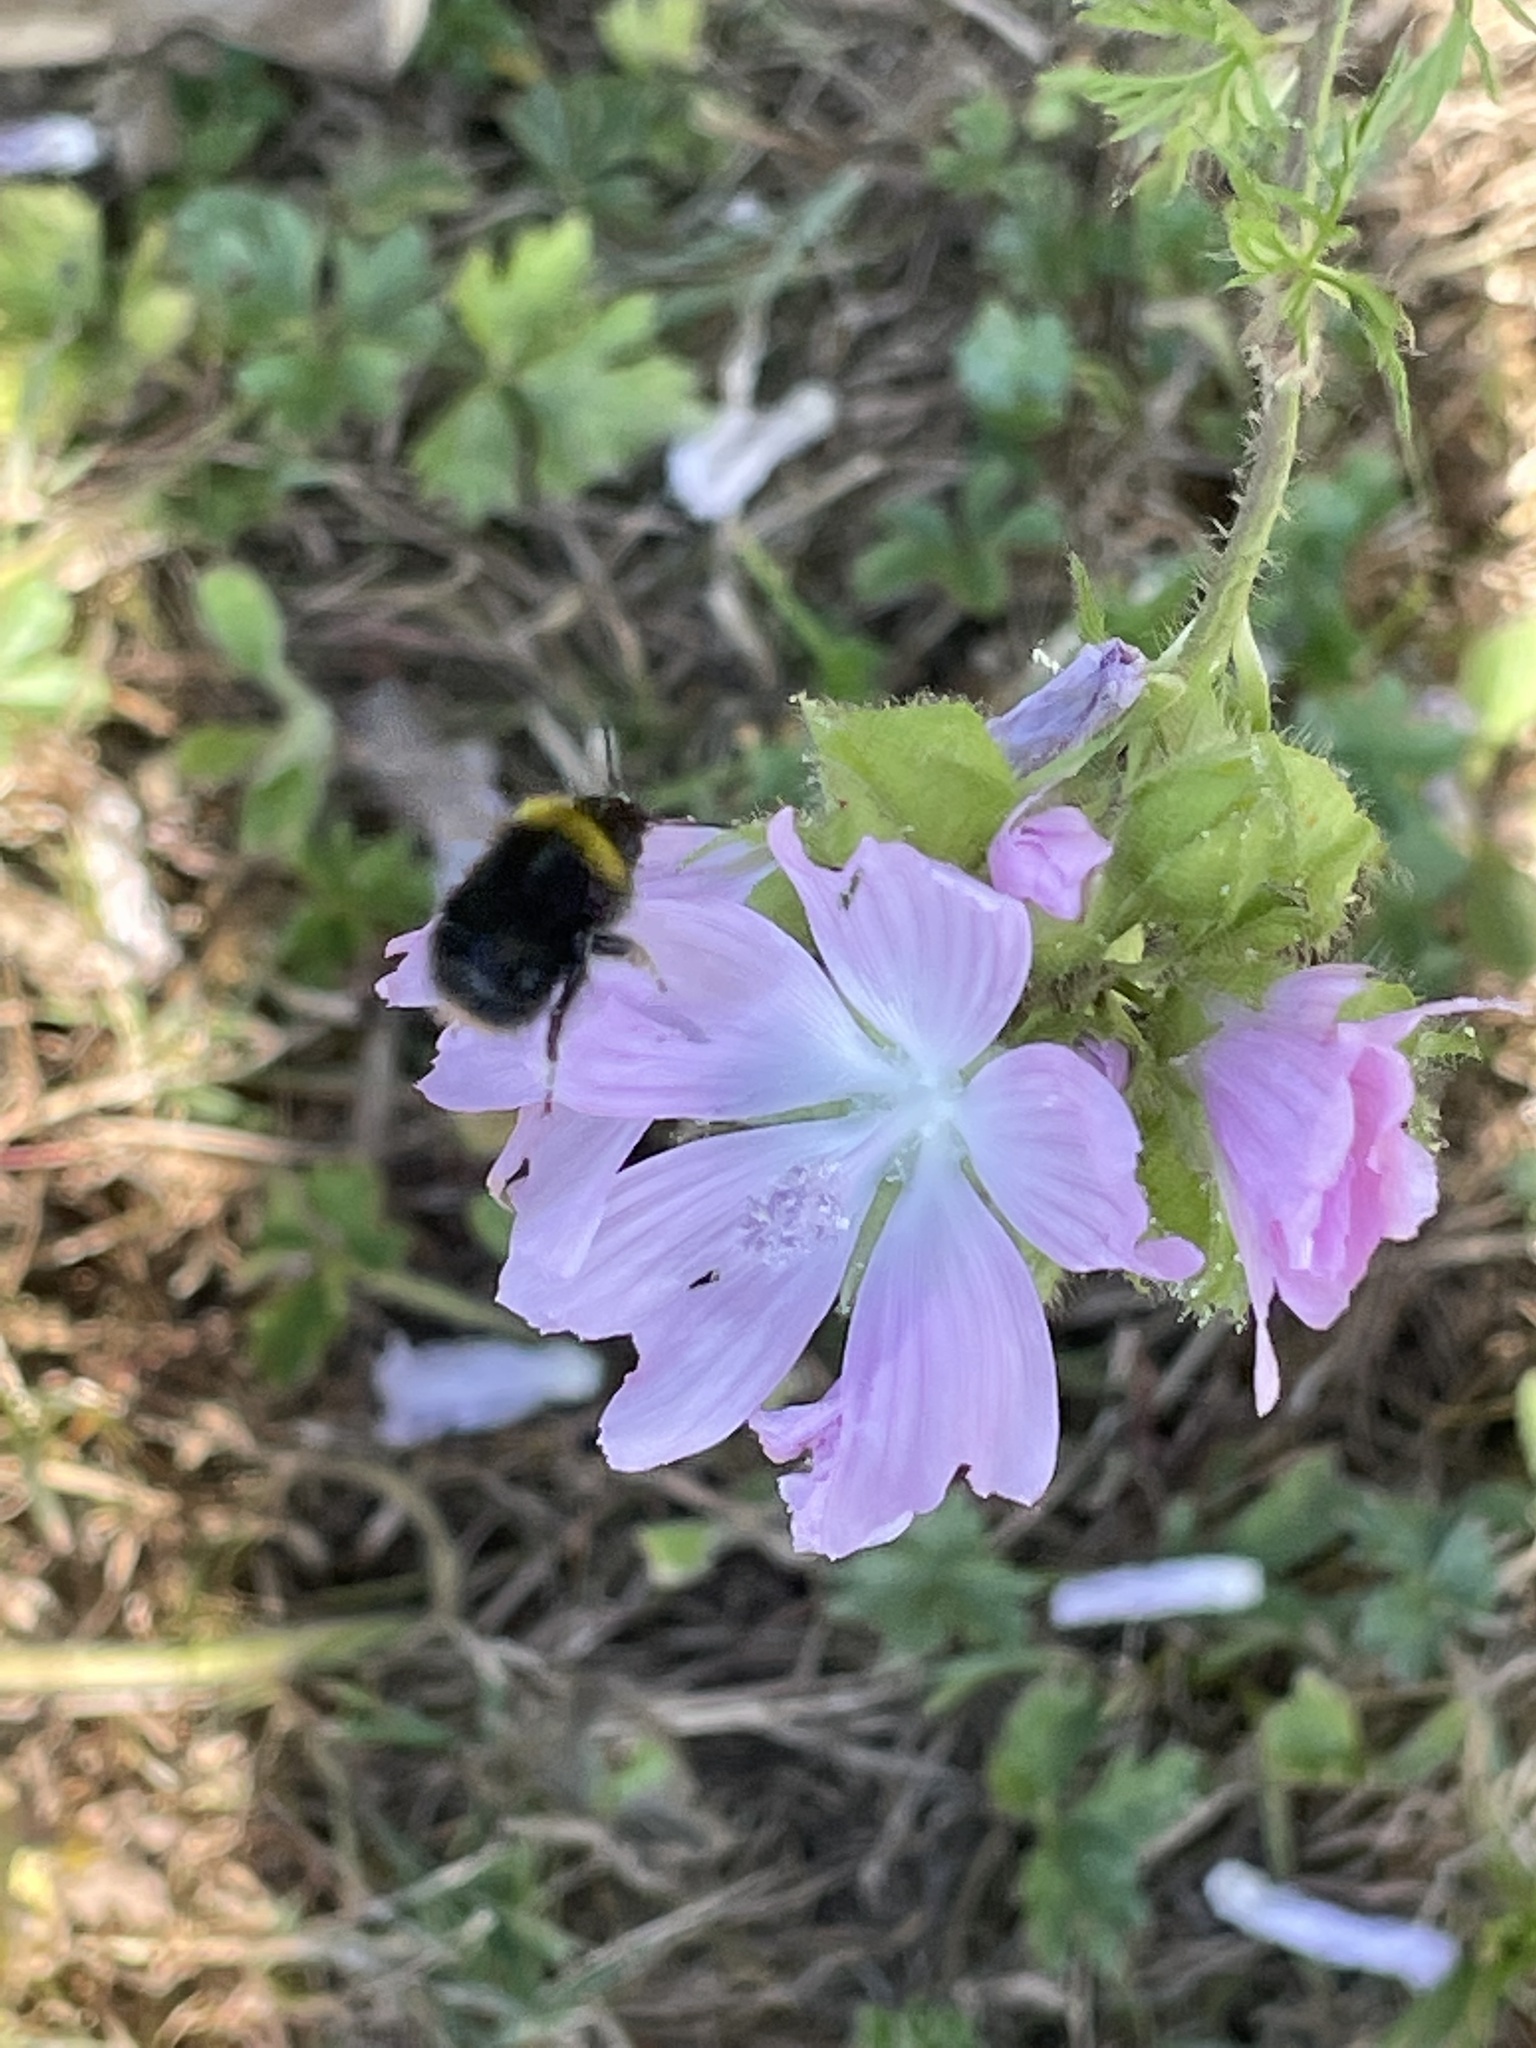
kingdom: Animalia
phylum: Arthropoda
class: Insecta
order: Hymenoptera
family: Apidae
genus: Bombus
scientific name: Bombus lapidarius
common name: Large red-tailed humble-bee
